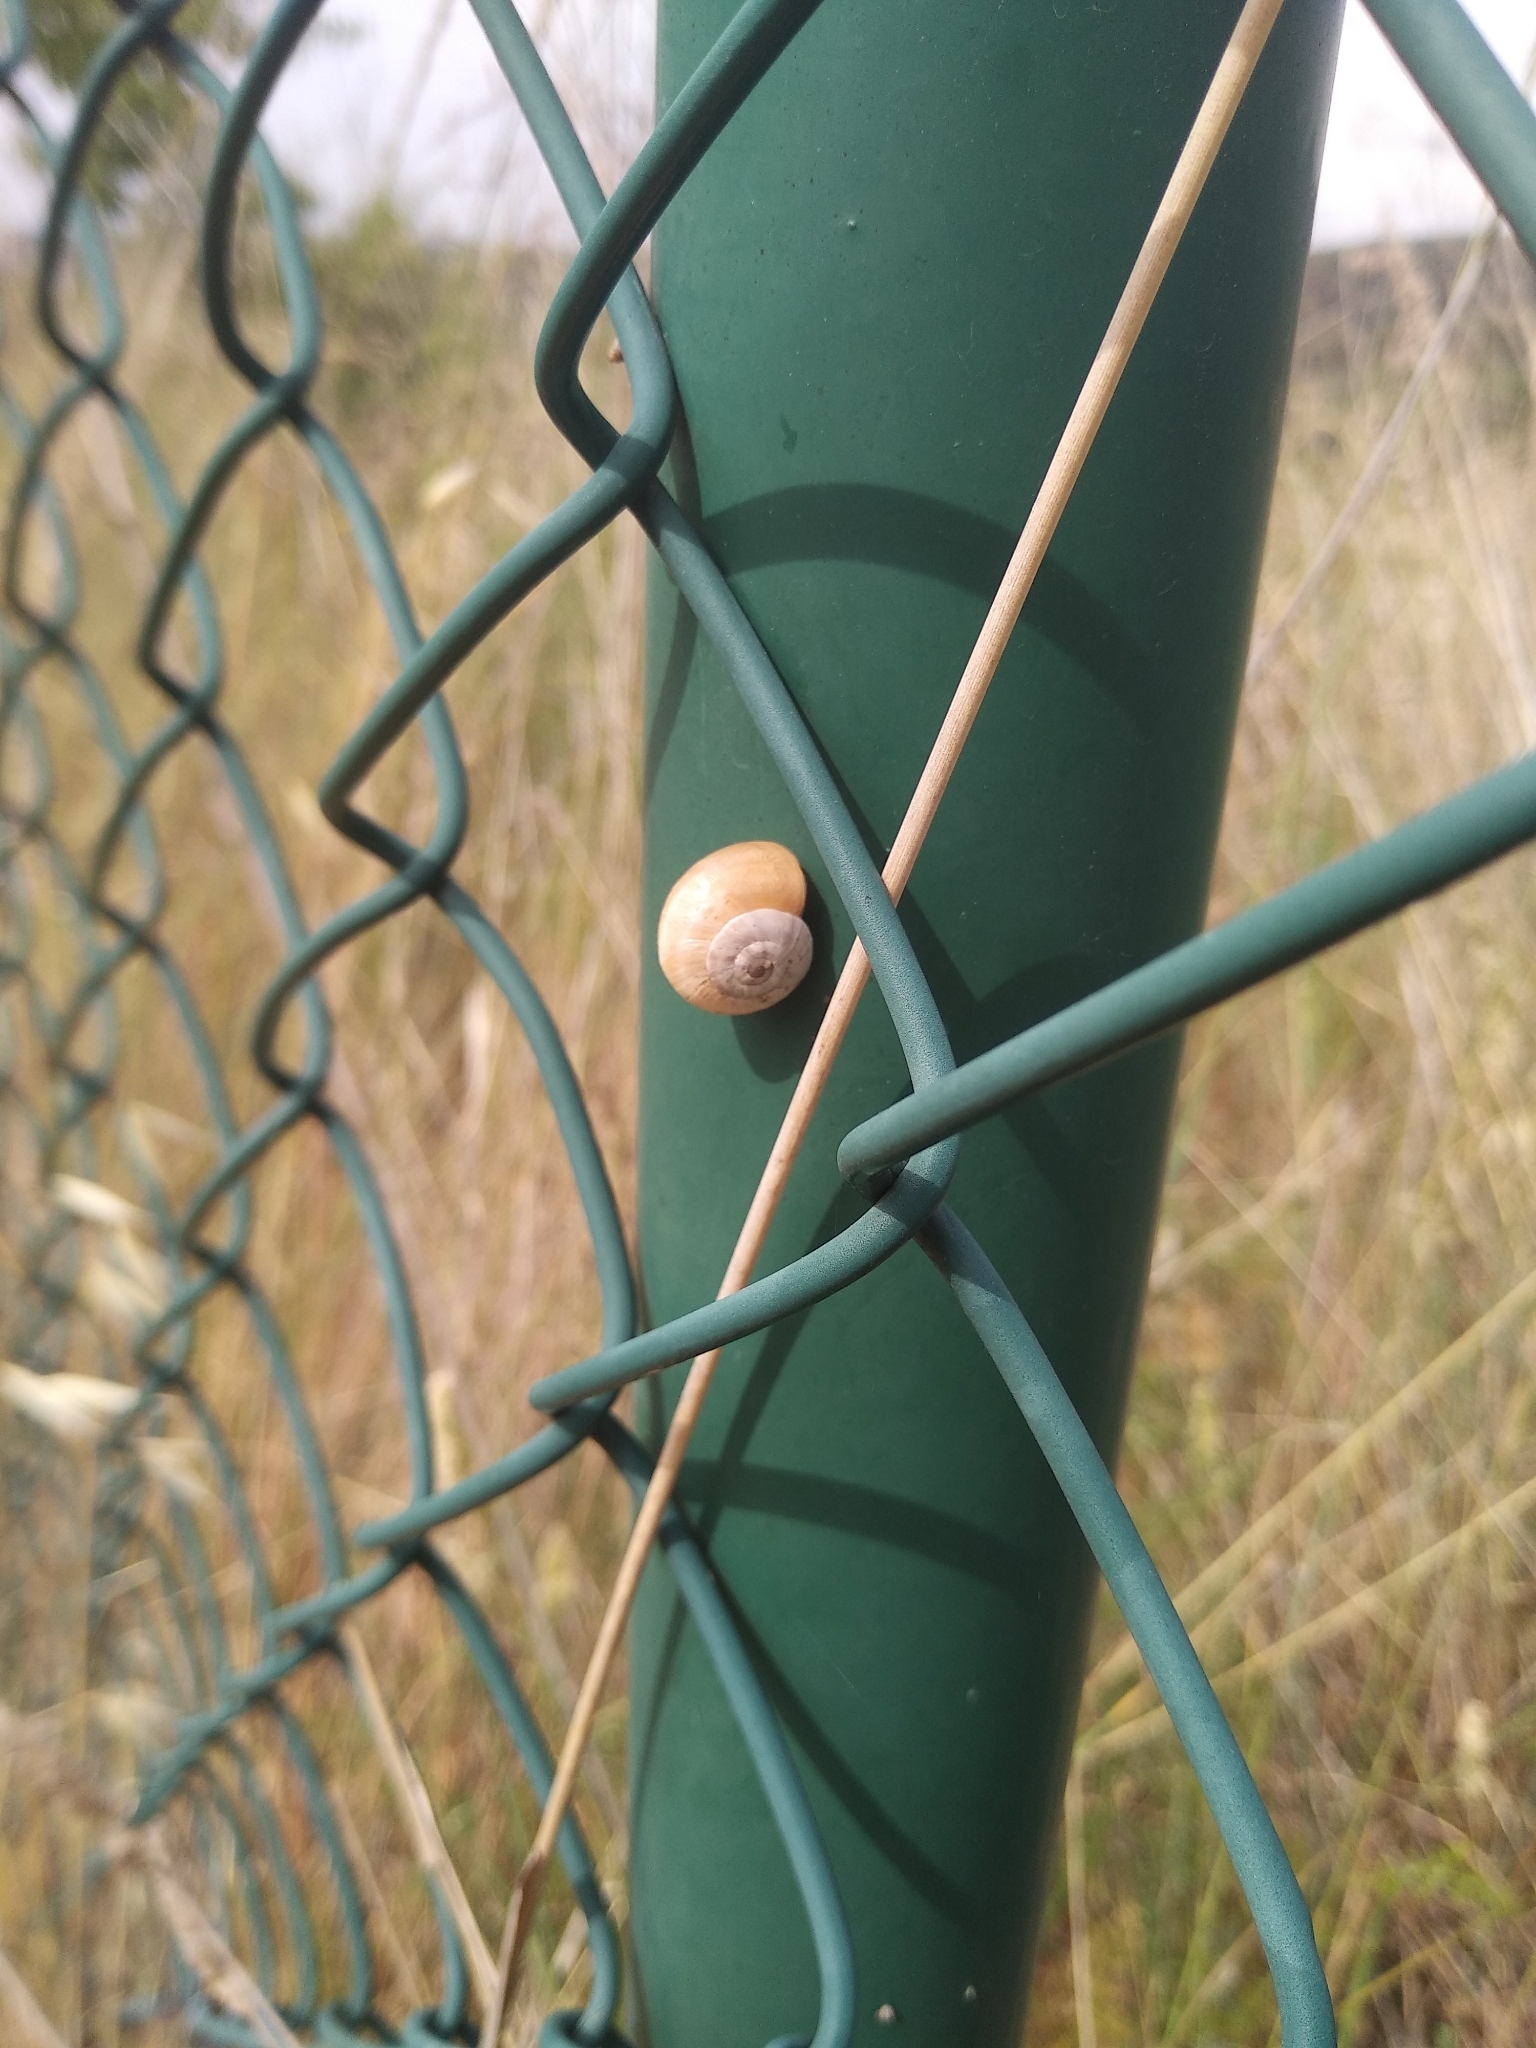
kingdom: Animalia
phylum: Mollusca
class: Gastropoda
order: Stylommatophora
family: Helicidae
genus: Theba
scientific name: Theba pisana
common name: White snail
